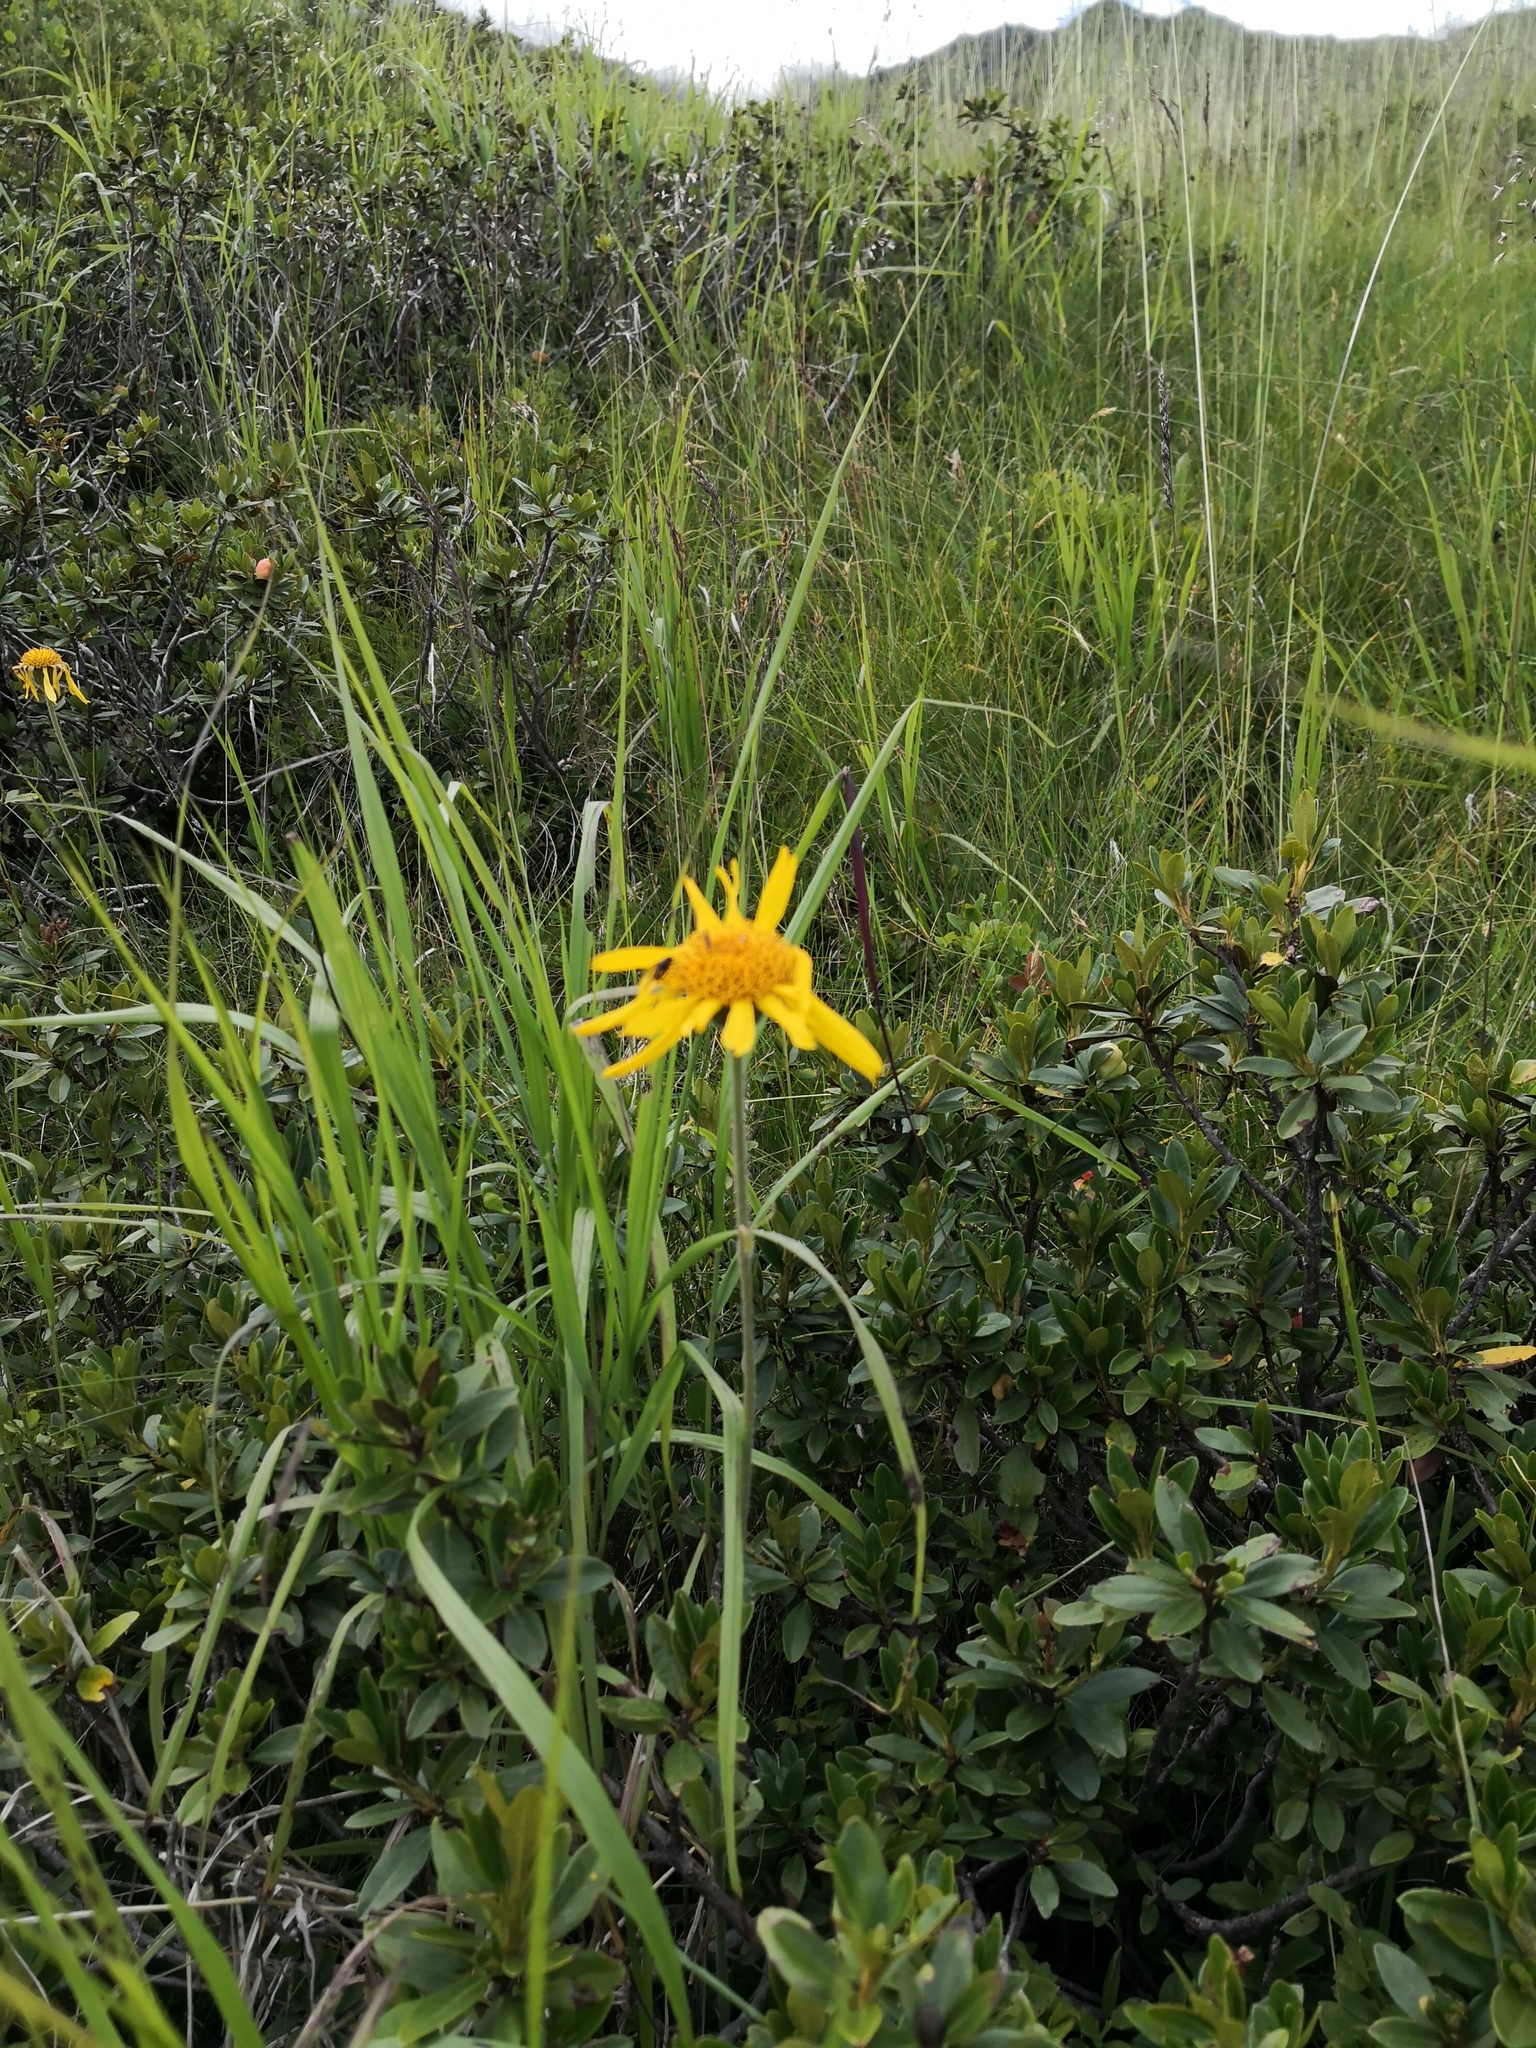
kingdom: Plantae
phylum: Tracheophyta
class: Magnoliopsida
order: Asterales
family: Asteraceae
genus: Arnica
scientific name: Arnica montana
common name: Leopard's bane
